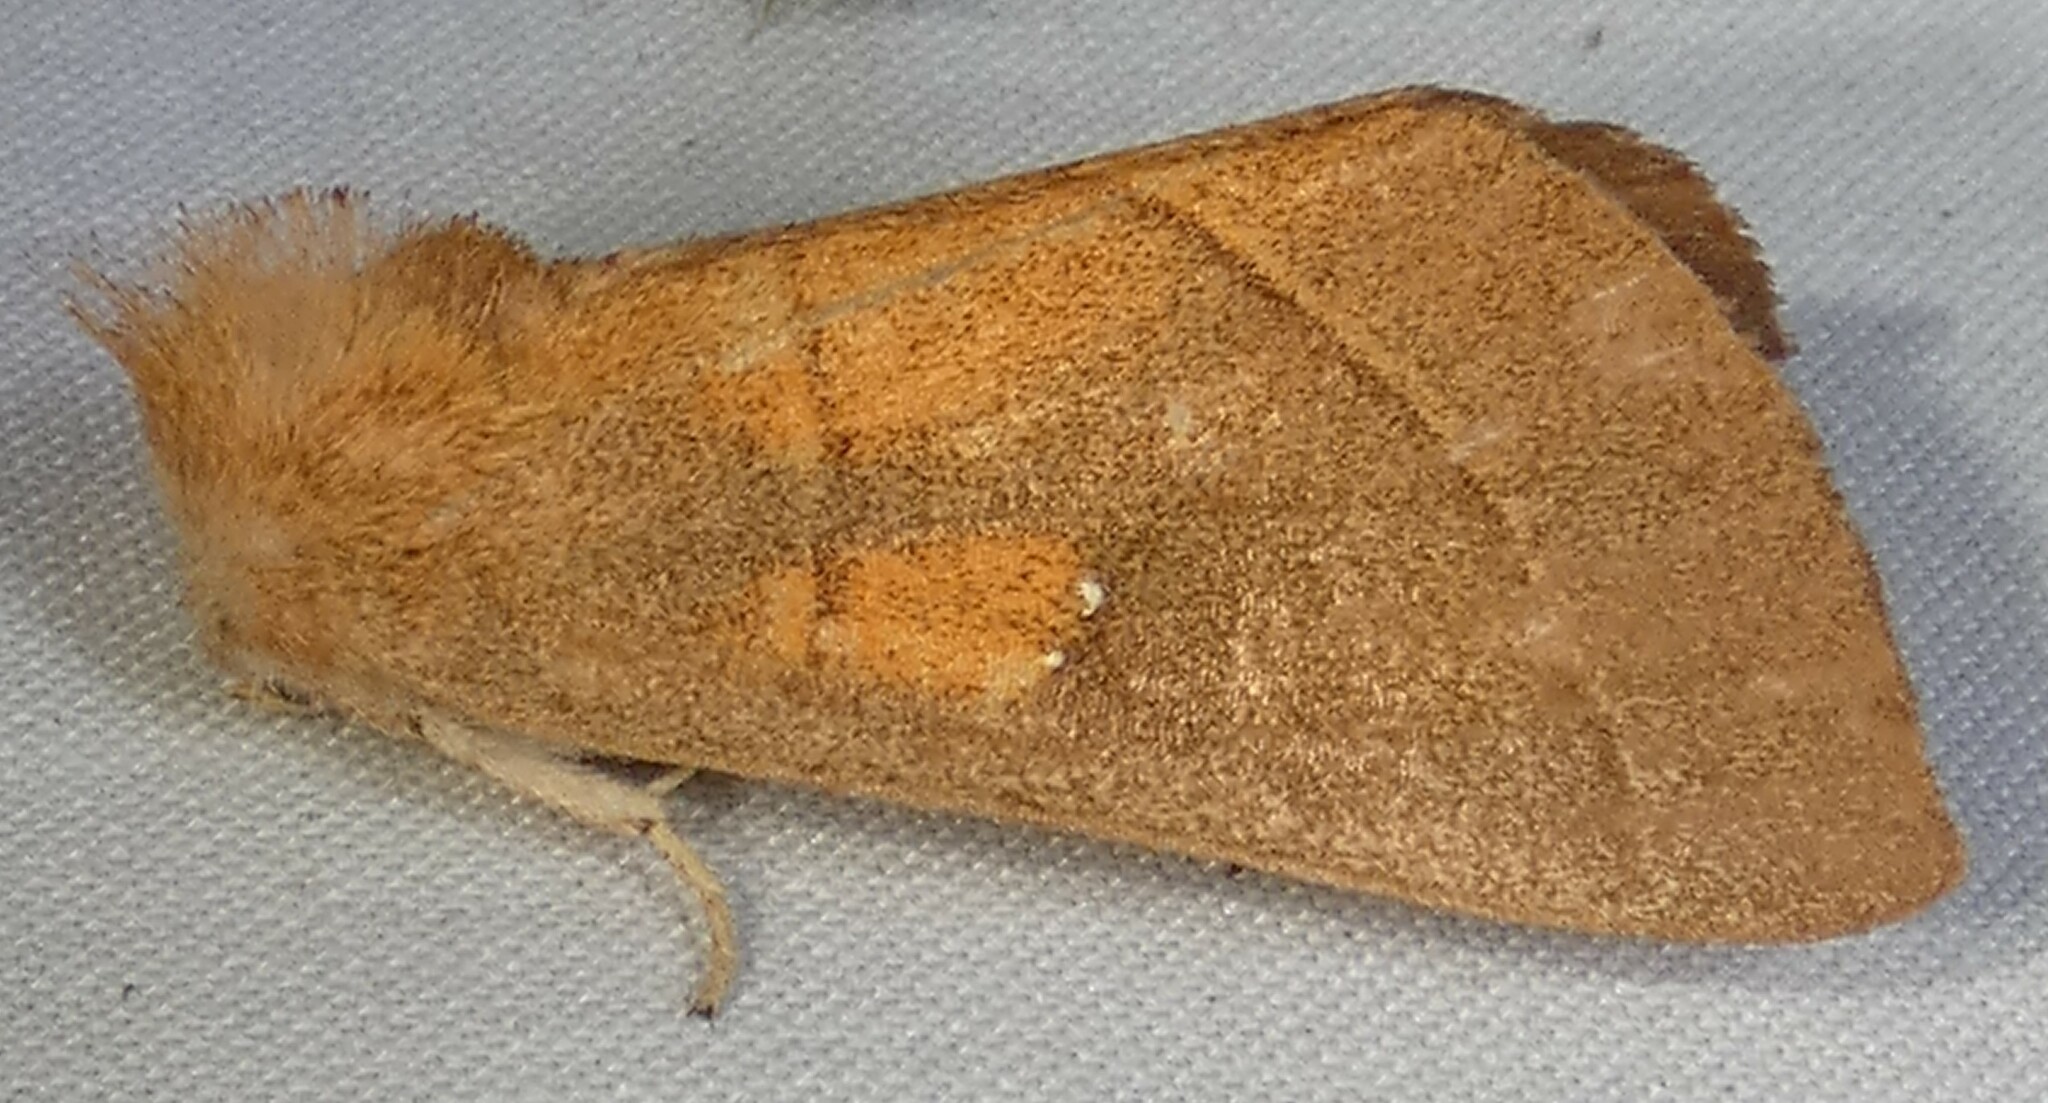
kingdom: Animalia
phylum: Arthropoda
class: Insecta
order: Lepidoptera
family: Notodontidae
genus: Nadata
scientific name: Nadata gibbosa
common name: White-dotted prominent
